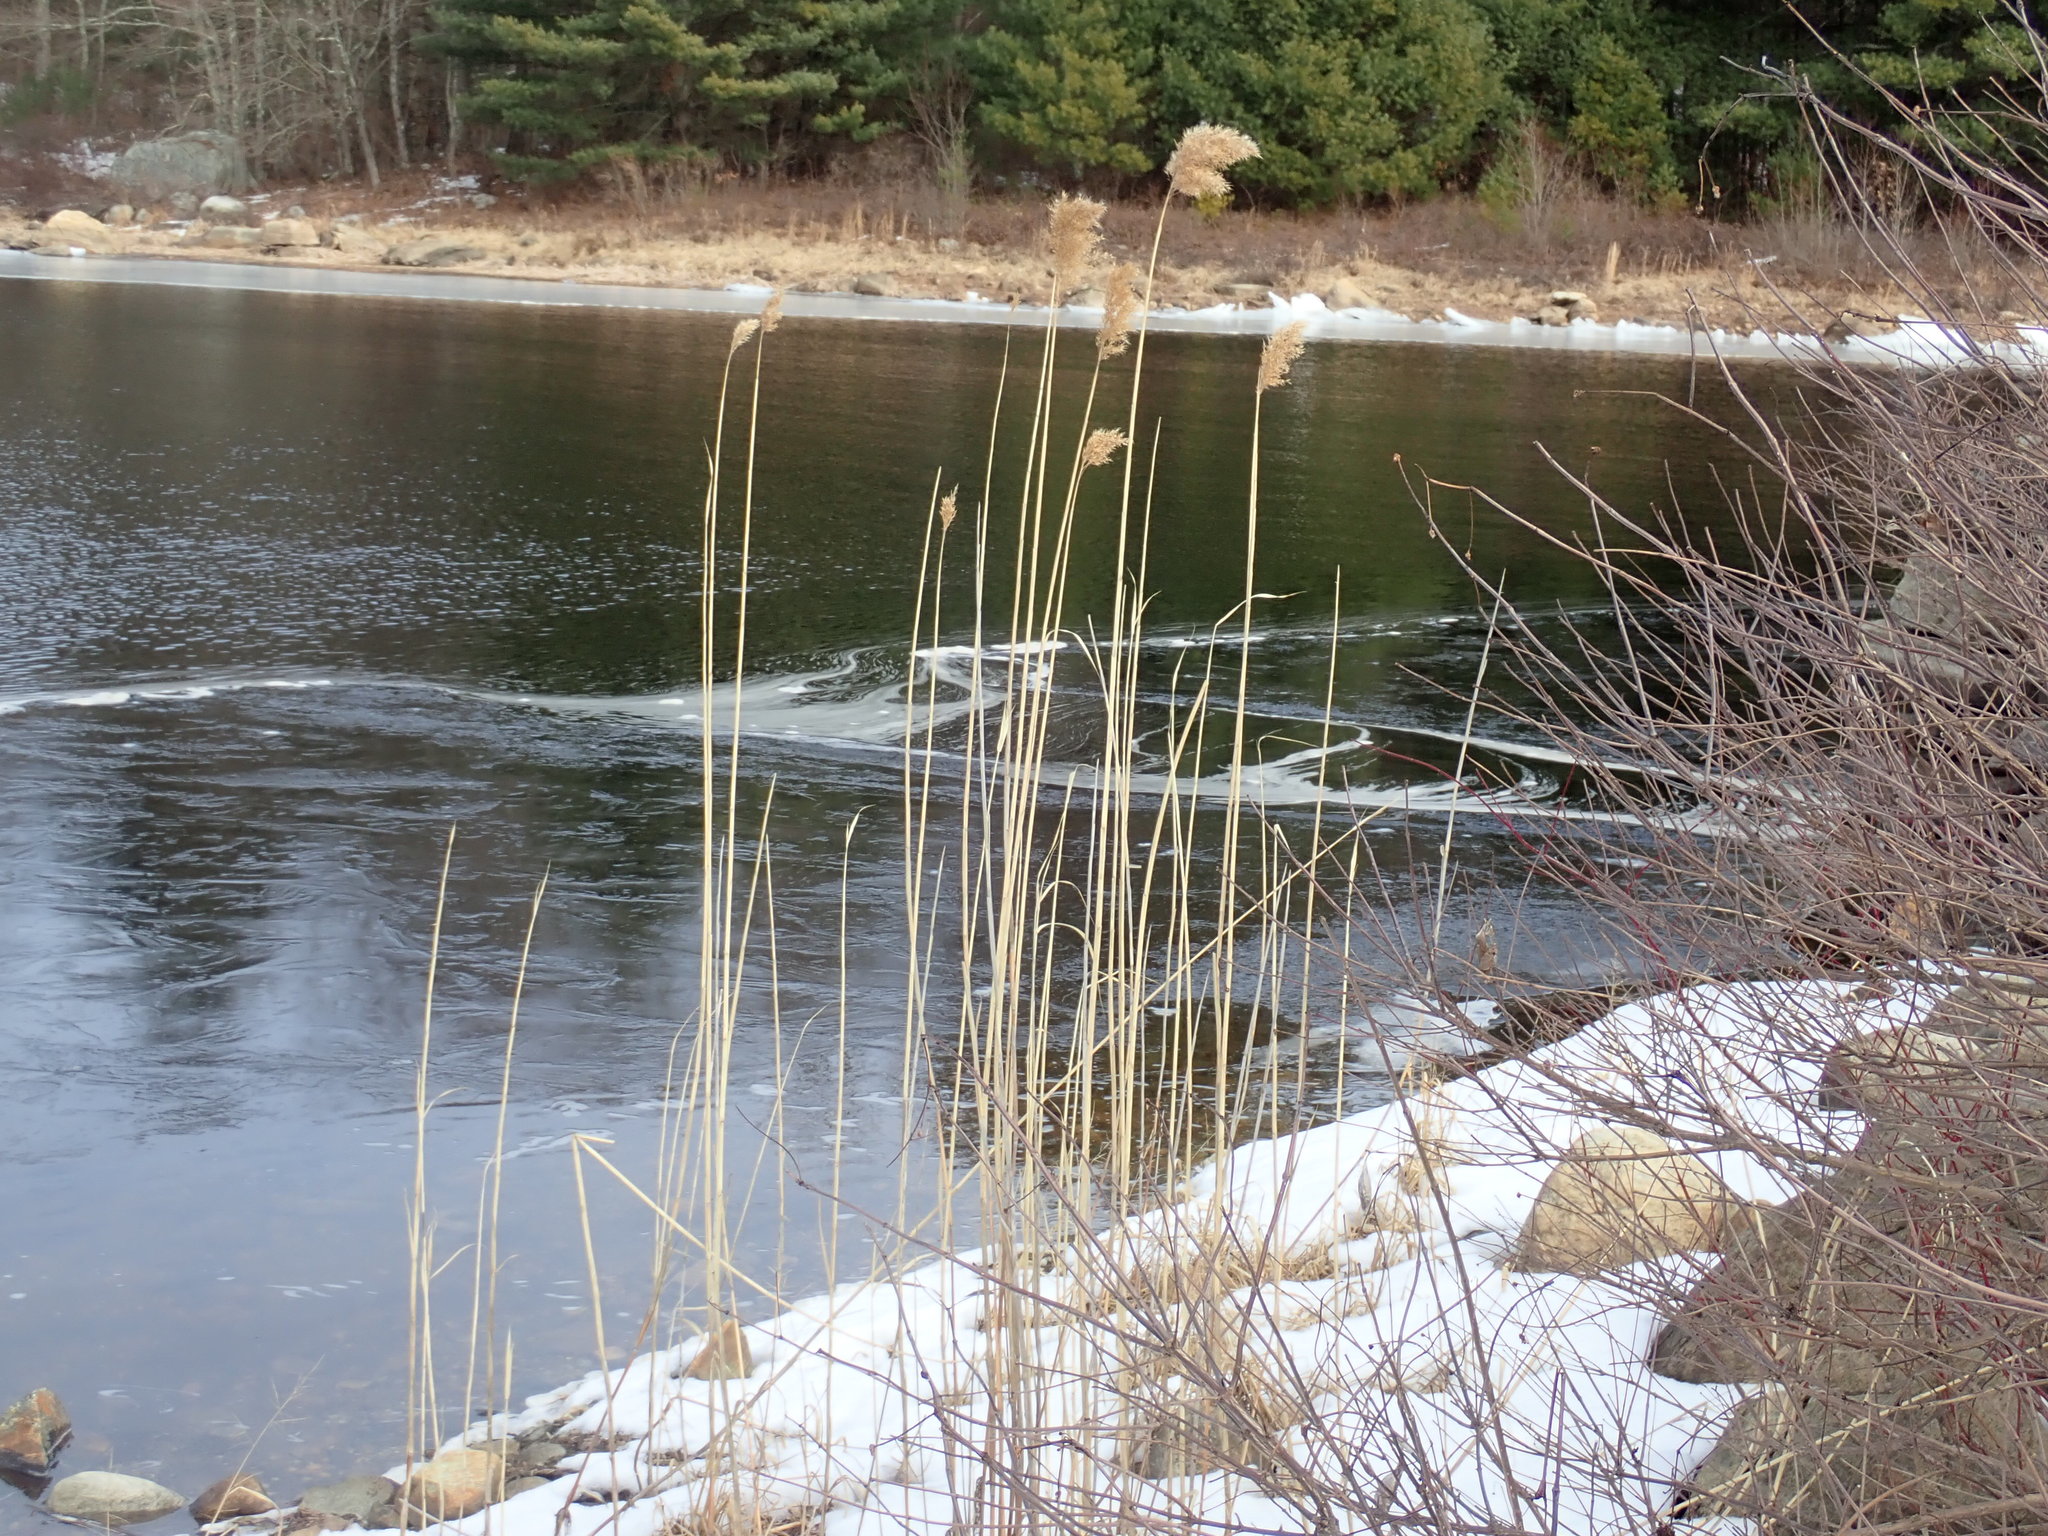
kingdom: Plantae
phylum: Tracheophyta
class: Liliopsida
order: Poales
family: Poaceae
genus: Phragmites
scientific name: Phragmites australis
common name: Common reed
